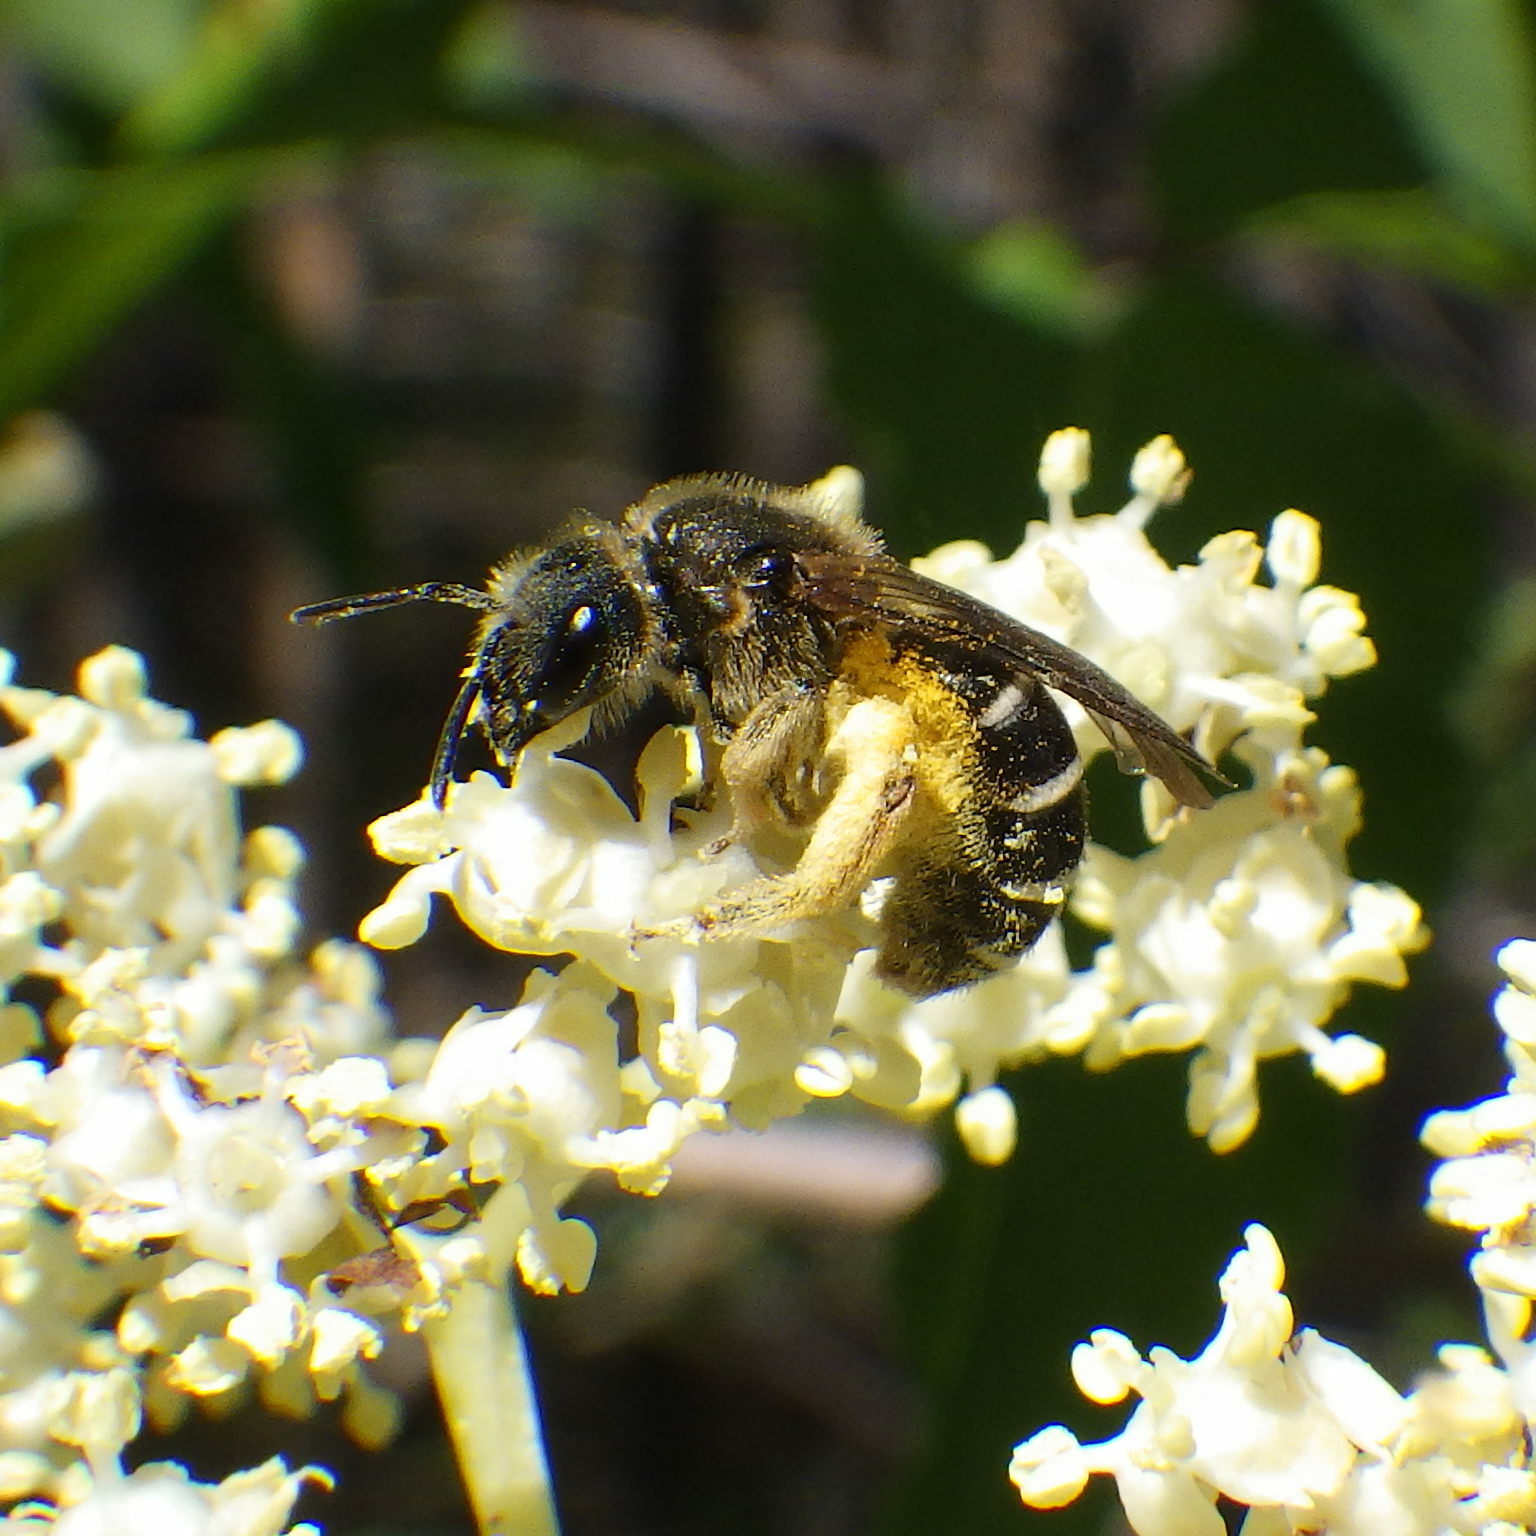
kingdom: Animalia
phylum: Arthropoda
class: Insecta
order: Hymenoptera
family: Halictidae
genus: Halictus
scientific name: Halictus rubicundus
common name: Orange-legged furrow bee
